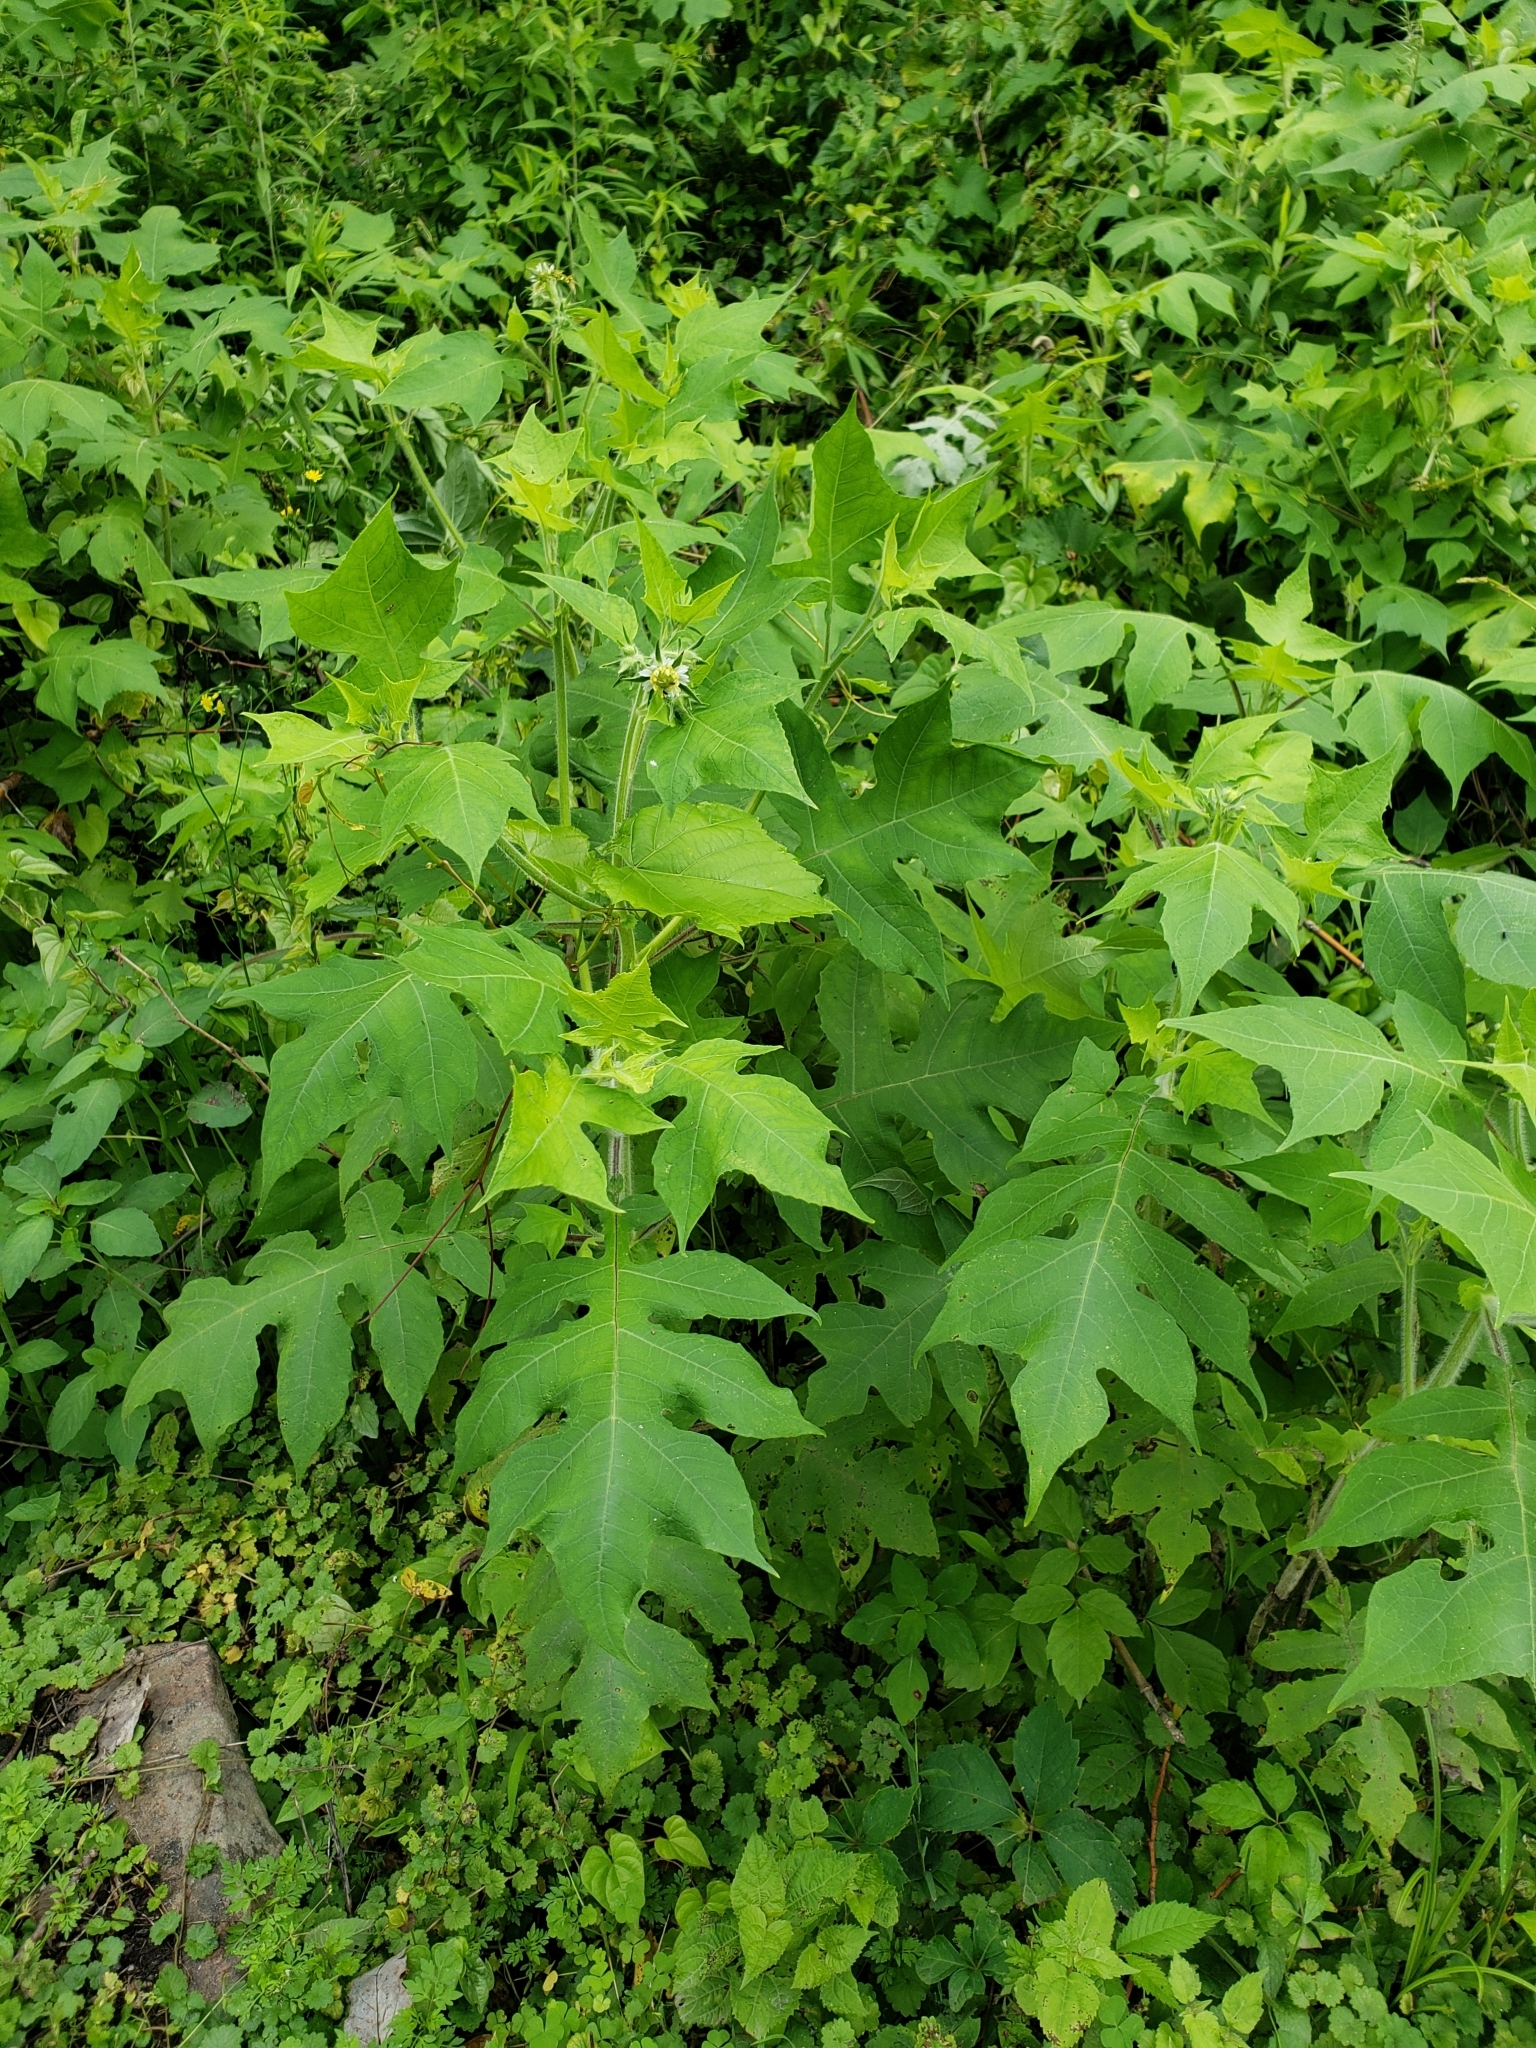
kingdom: Plantae
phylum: Tracheophyta
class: Magnoliopsida
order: Asterales
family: Asteraceae
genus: Polymnia
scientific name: Polymnia canadensis
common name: Pale-flowered leafcup
